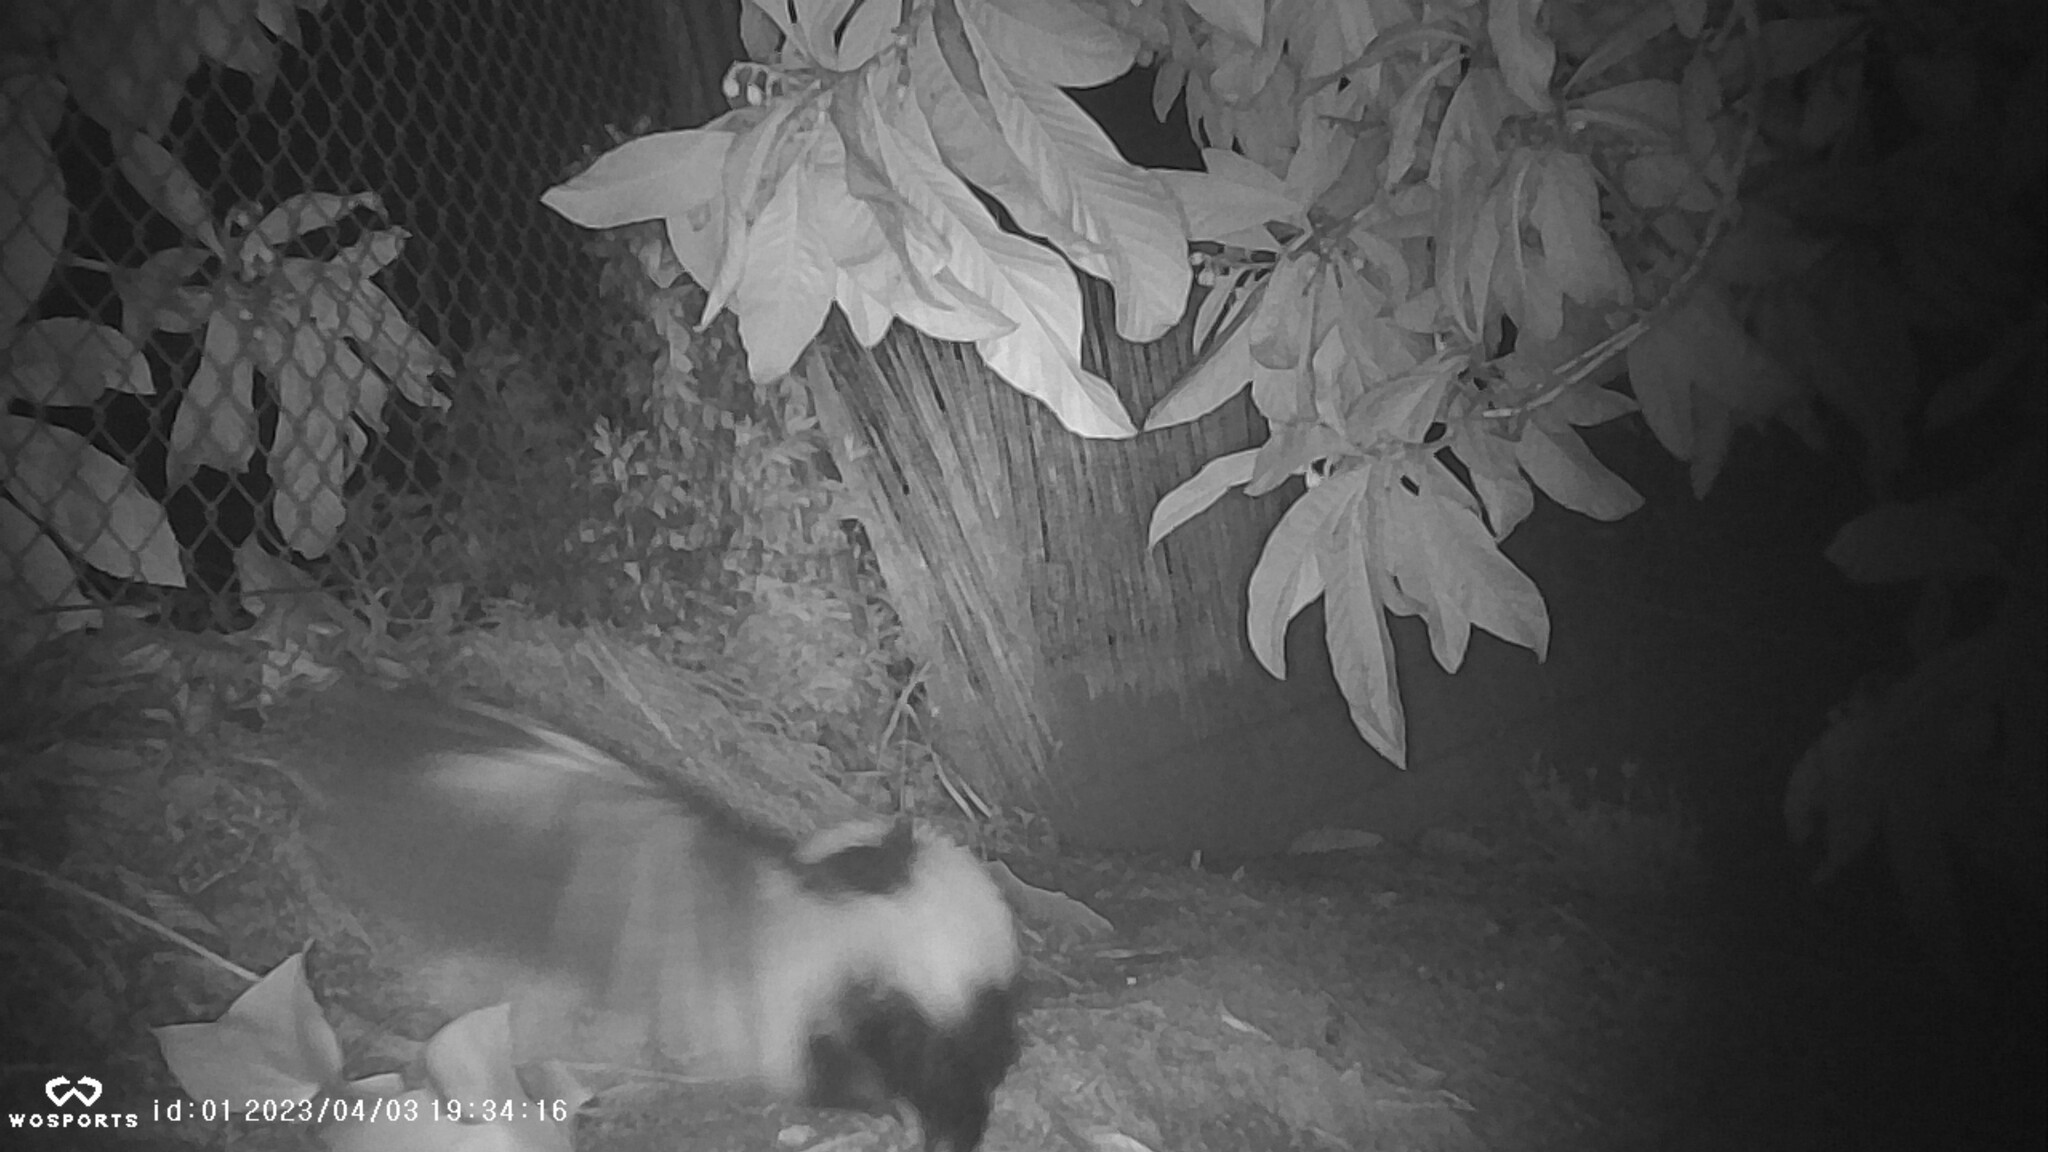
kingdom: Animalia
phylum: Chordata
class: Mammalia
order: Carnivora
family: Mephitidae
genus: Mephitis
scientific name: Mephitis mephitis
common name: Striped skunk
